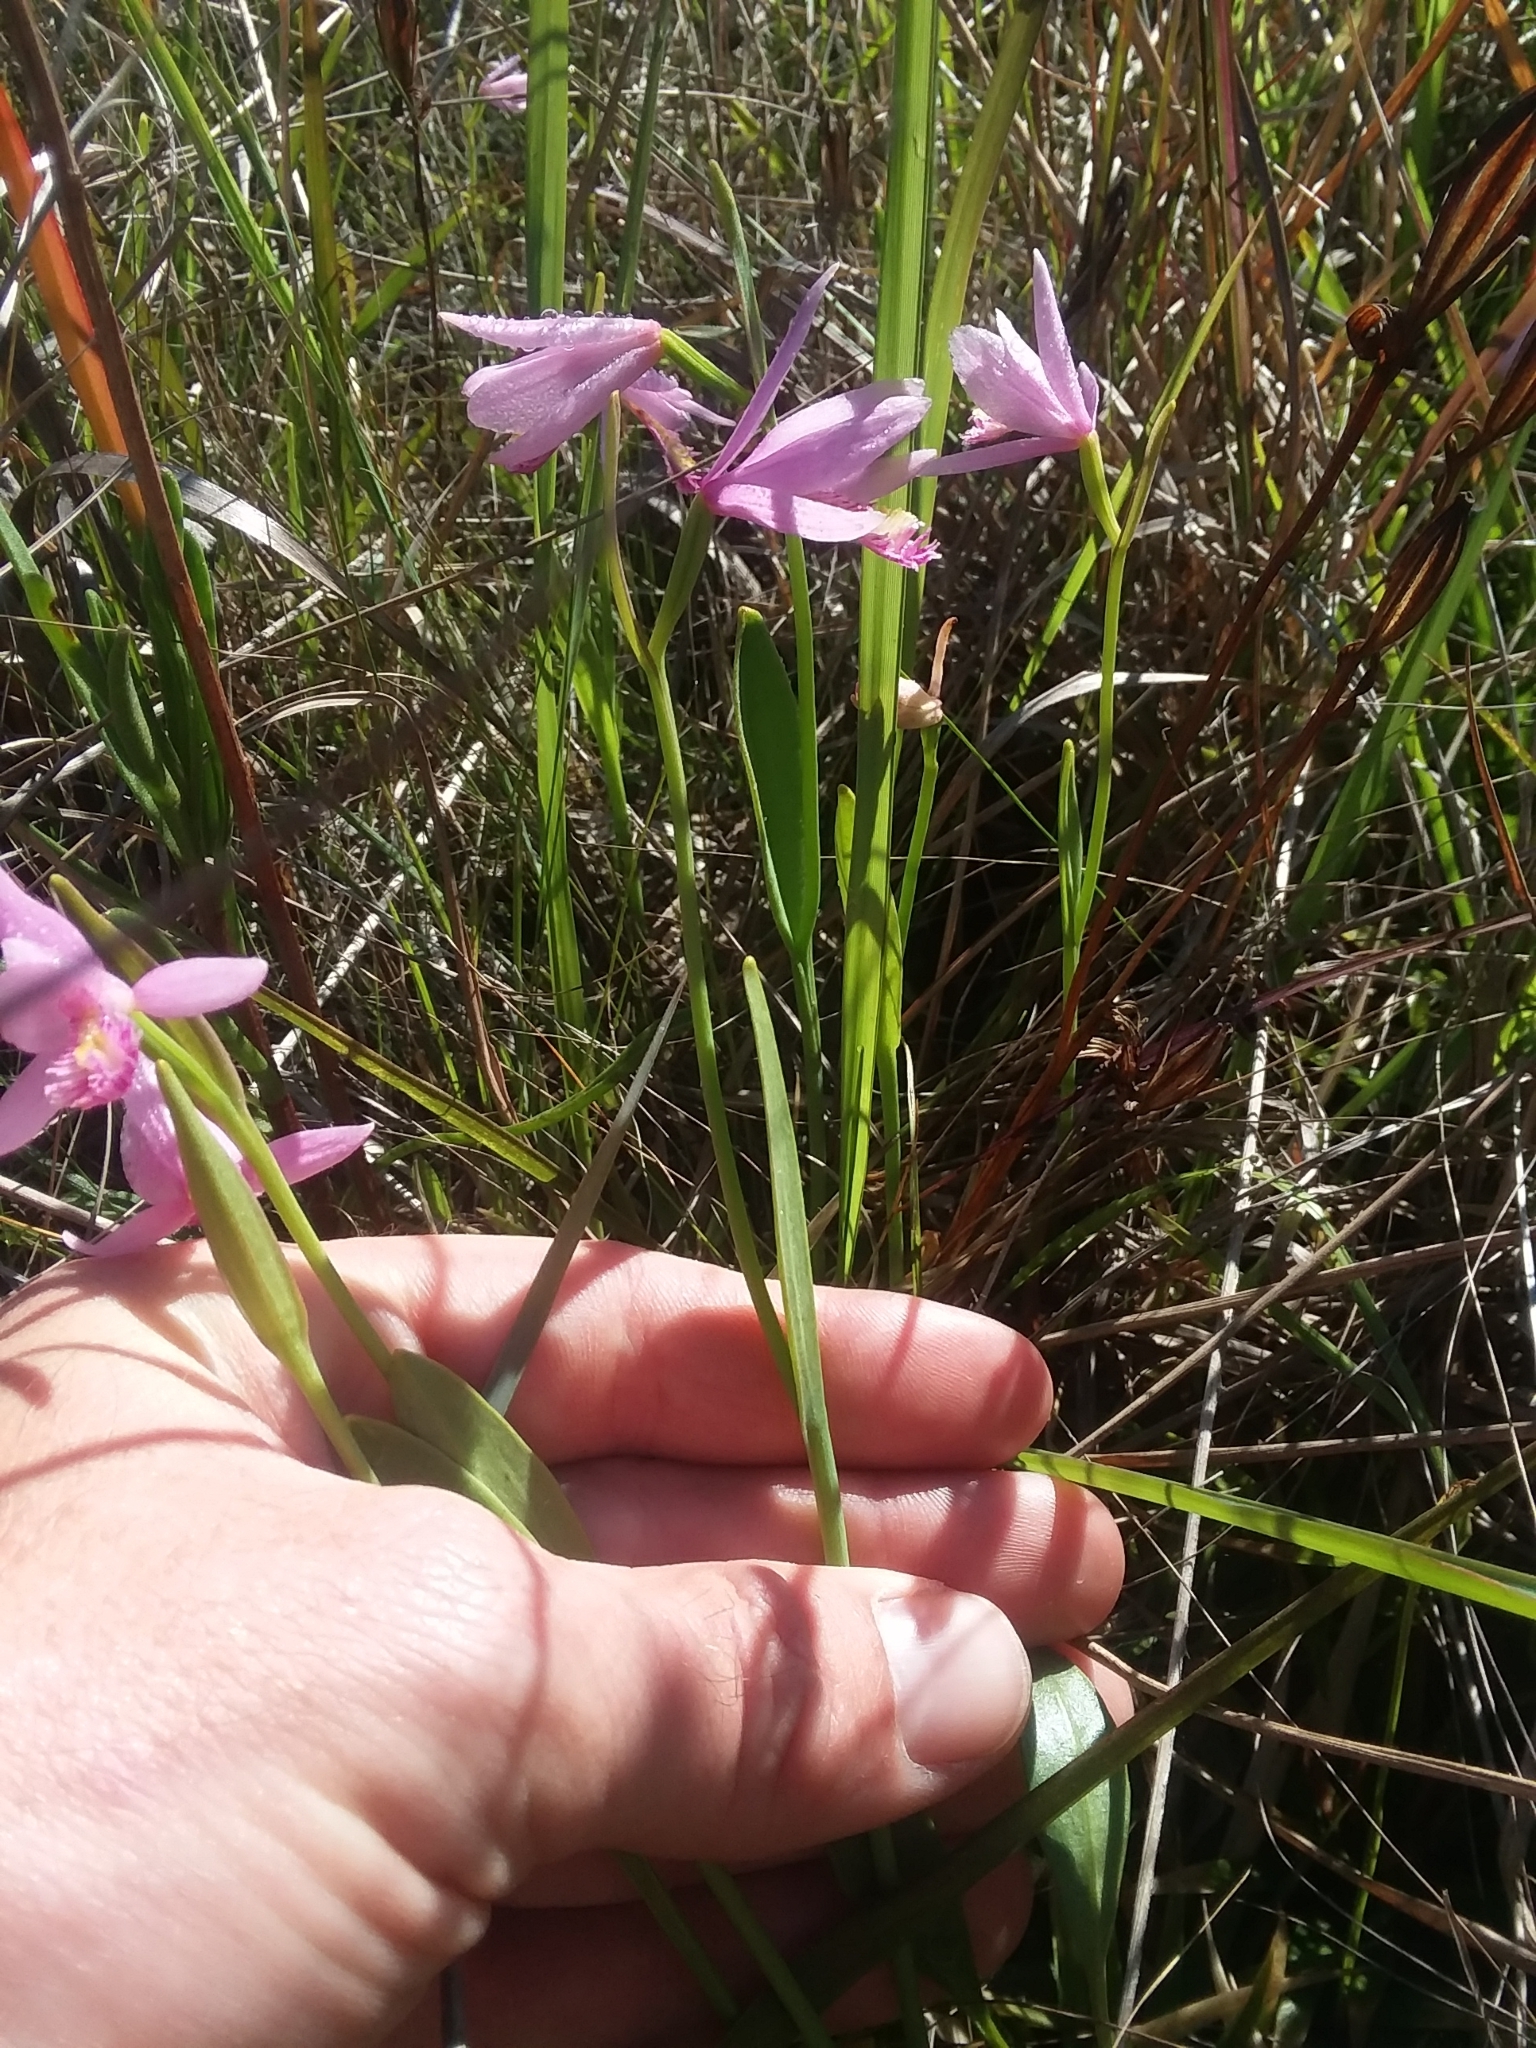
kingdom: Plantae
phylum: Tracheophyta
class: Liliopsida
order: Asparagales
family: Orchidaceae
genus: Pogonia
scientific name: Pogonia ophioglossoides
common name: Rose pogonia
